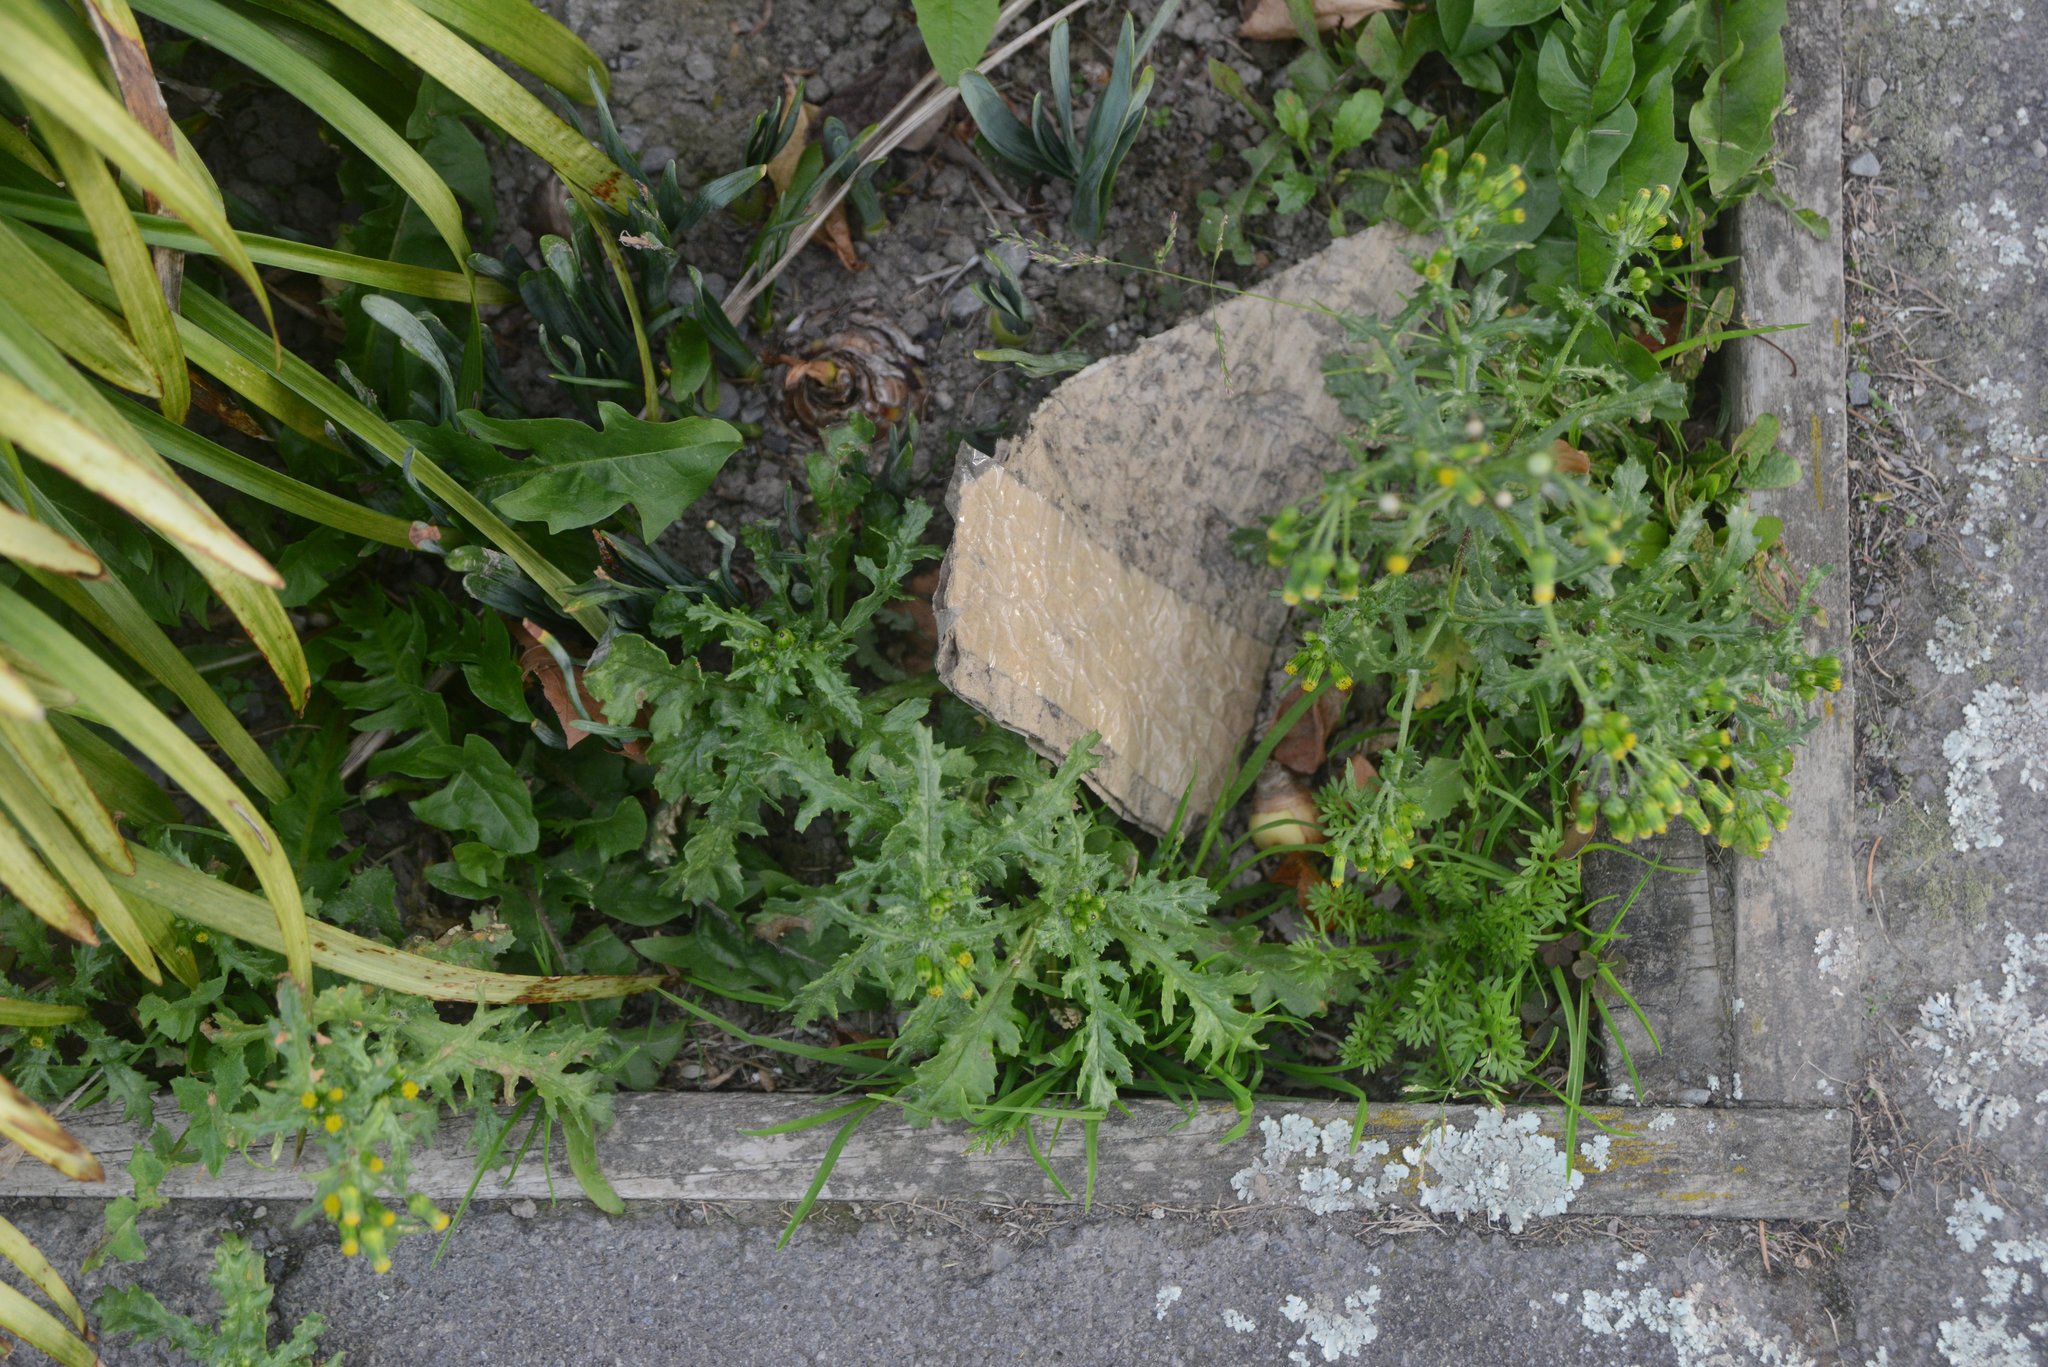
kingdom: Plantae
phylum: Tracheophyta
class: Magnoliopsida
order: Asterales
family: Asteraceae
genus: Senecio
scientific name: Senecio vulgaris
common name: Old-man-in-the-spring
